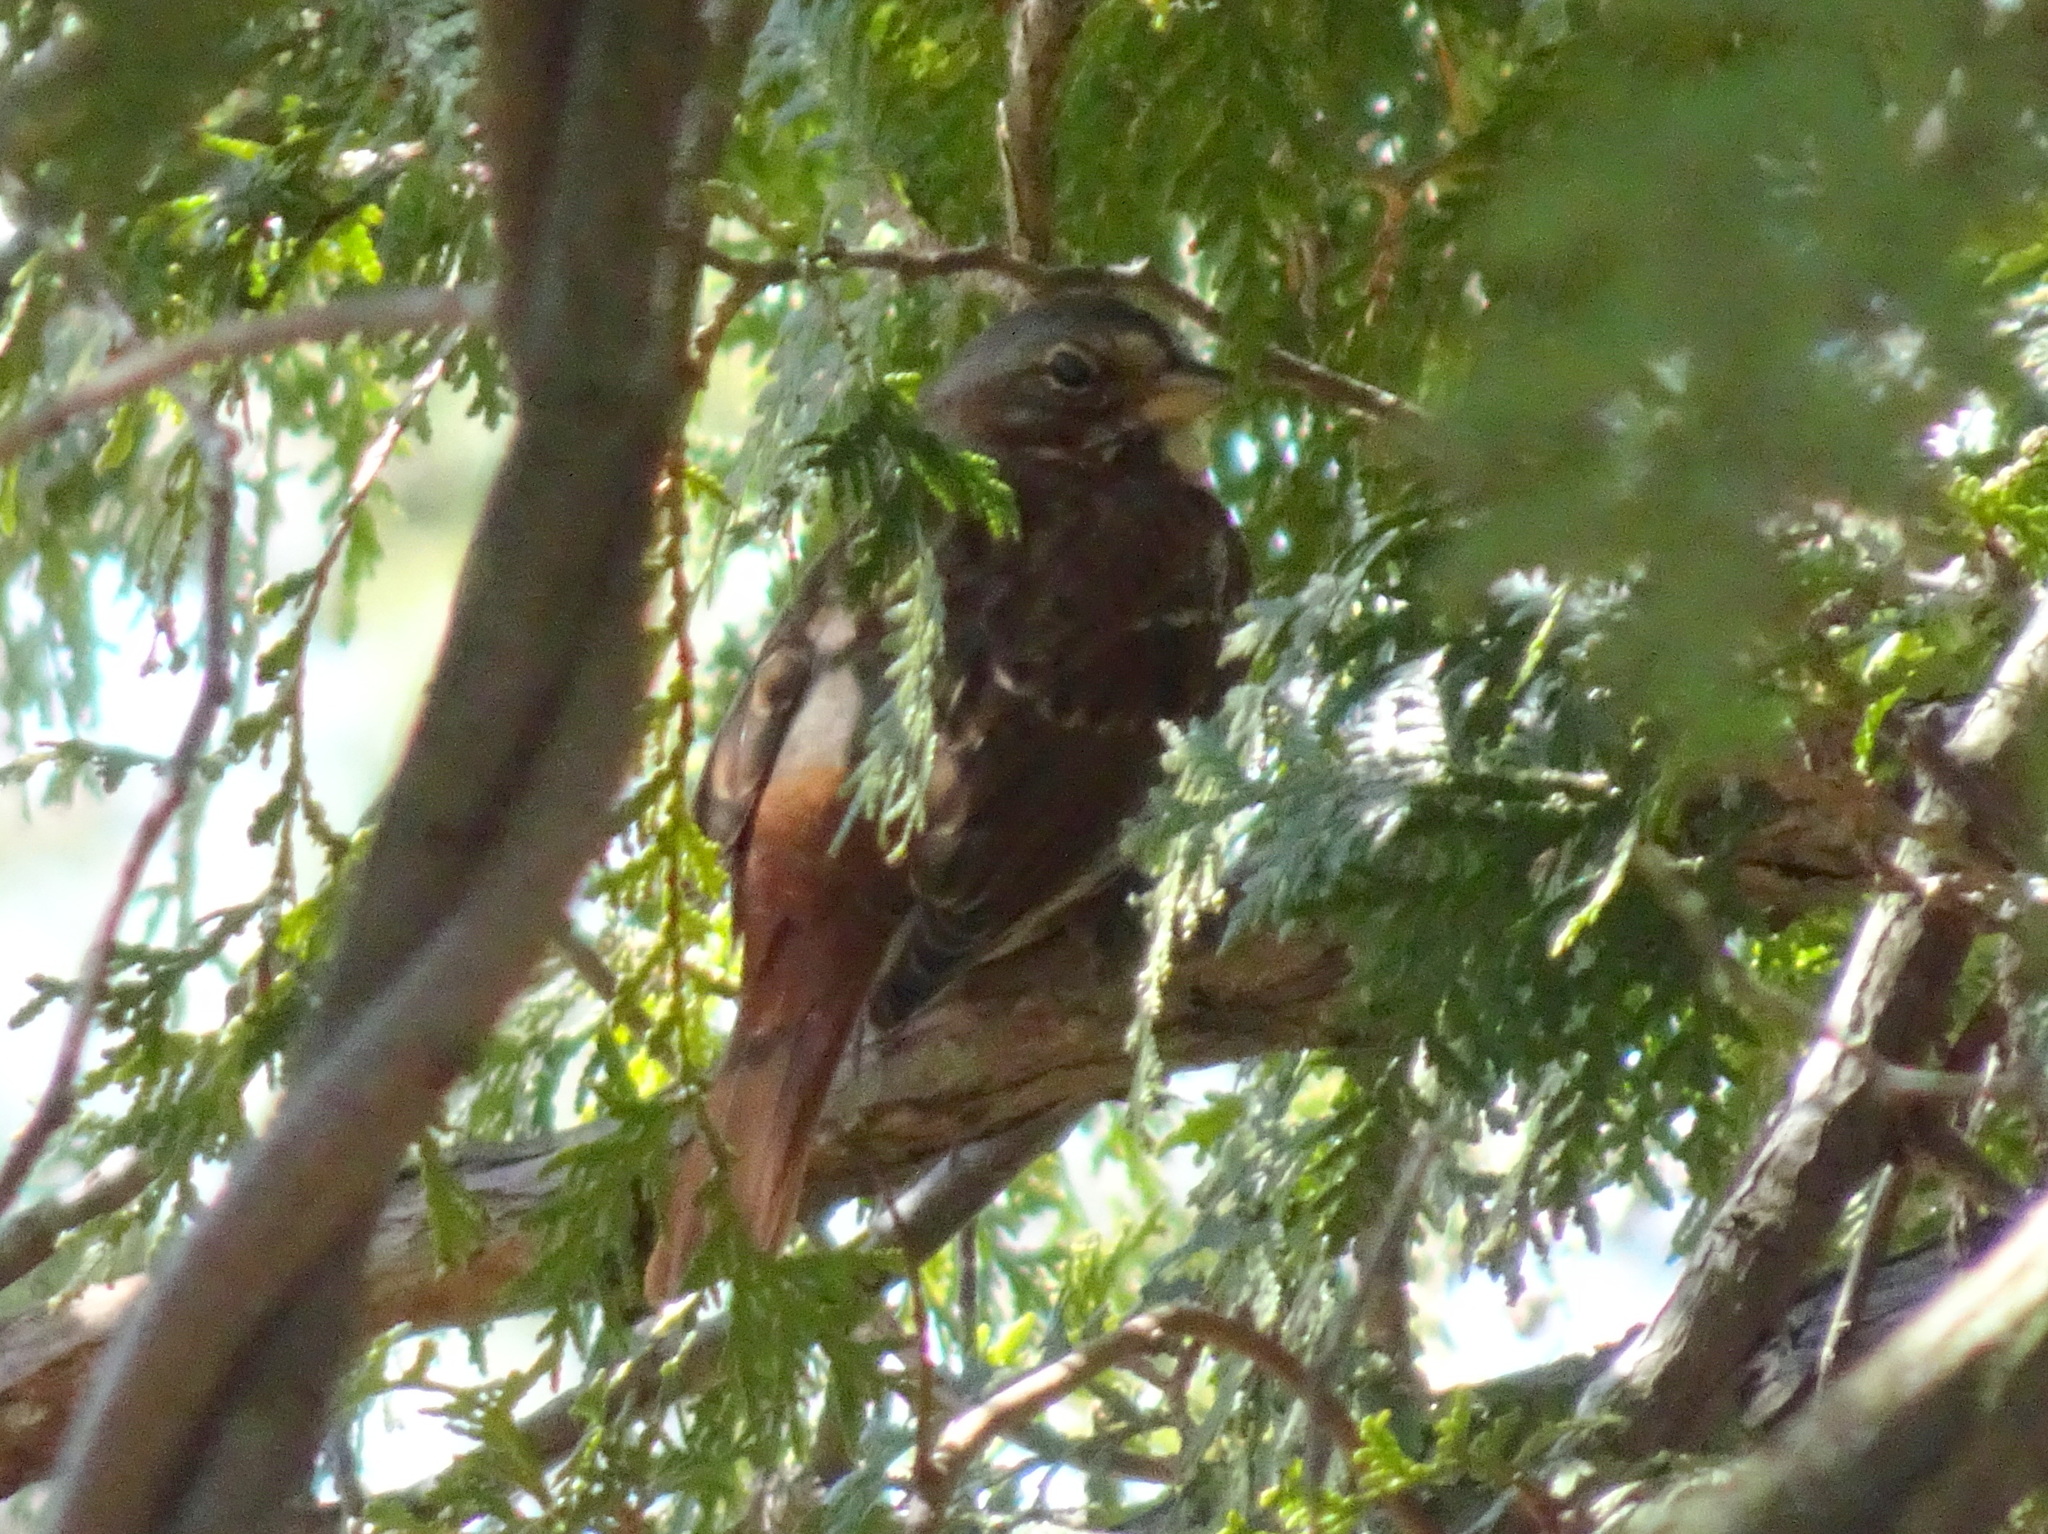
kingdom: Animalia
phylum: Chordata
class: Aves
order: Passeriformes
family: Passerellidae
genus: Passerella
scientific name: Passerella iliaca
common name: Fox sparrow
